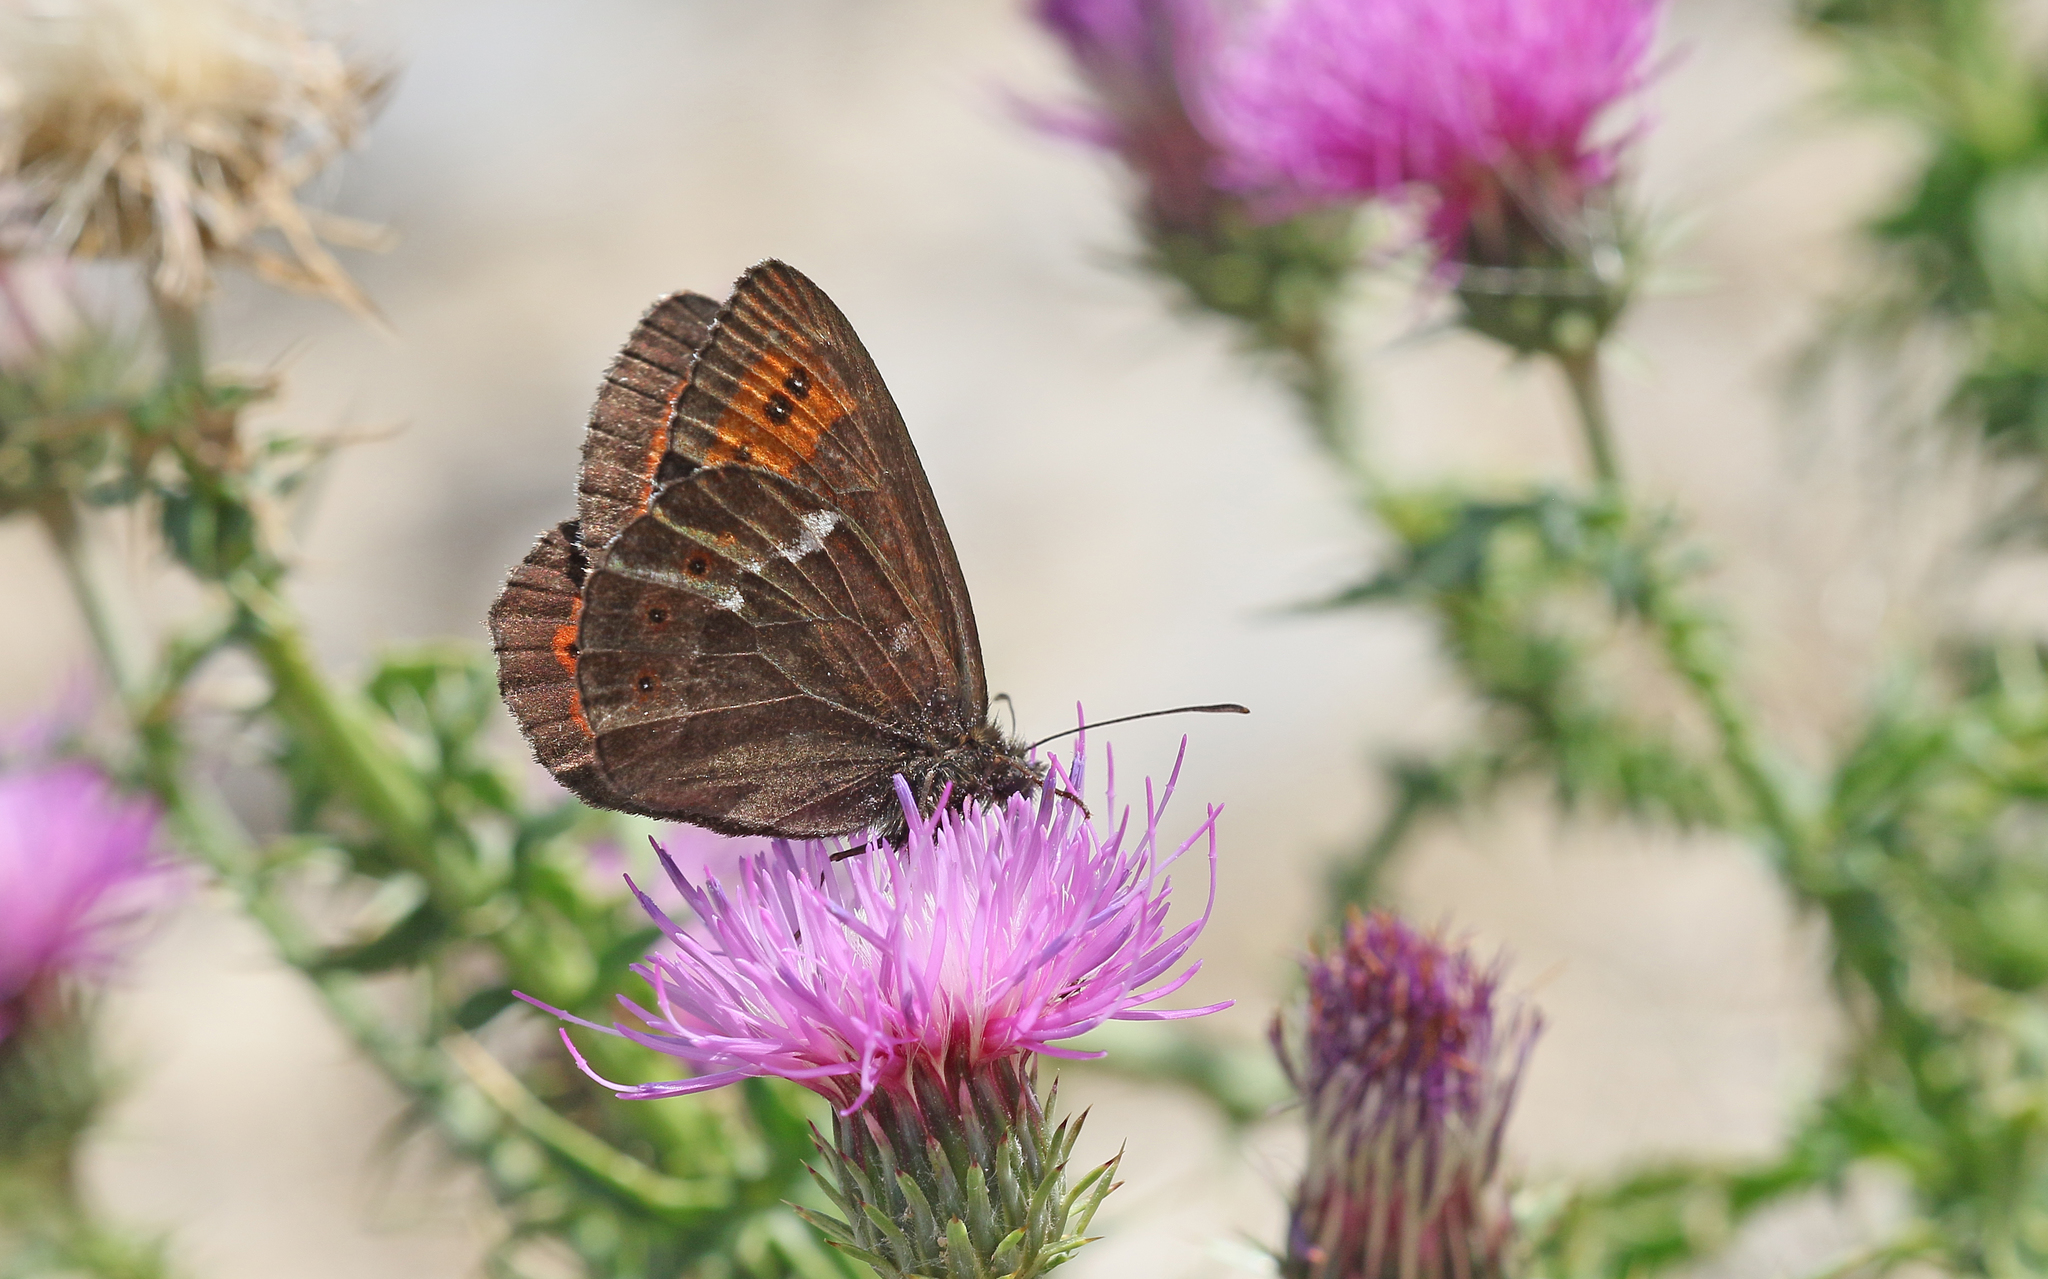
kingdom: Animalia
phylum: Arthropoda
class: Insecta
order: Lepidoptera
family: Nymphalidae
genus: Erebia
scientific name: Erebia ligea
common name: Arran brown
